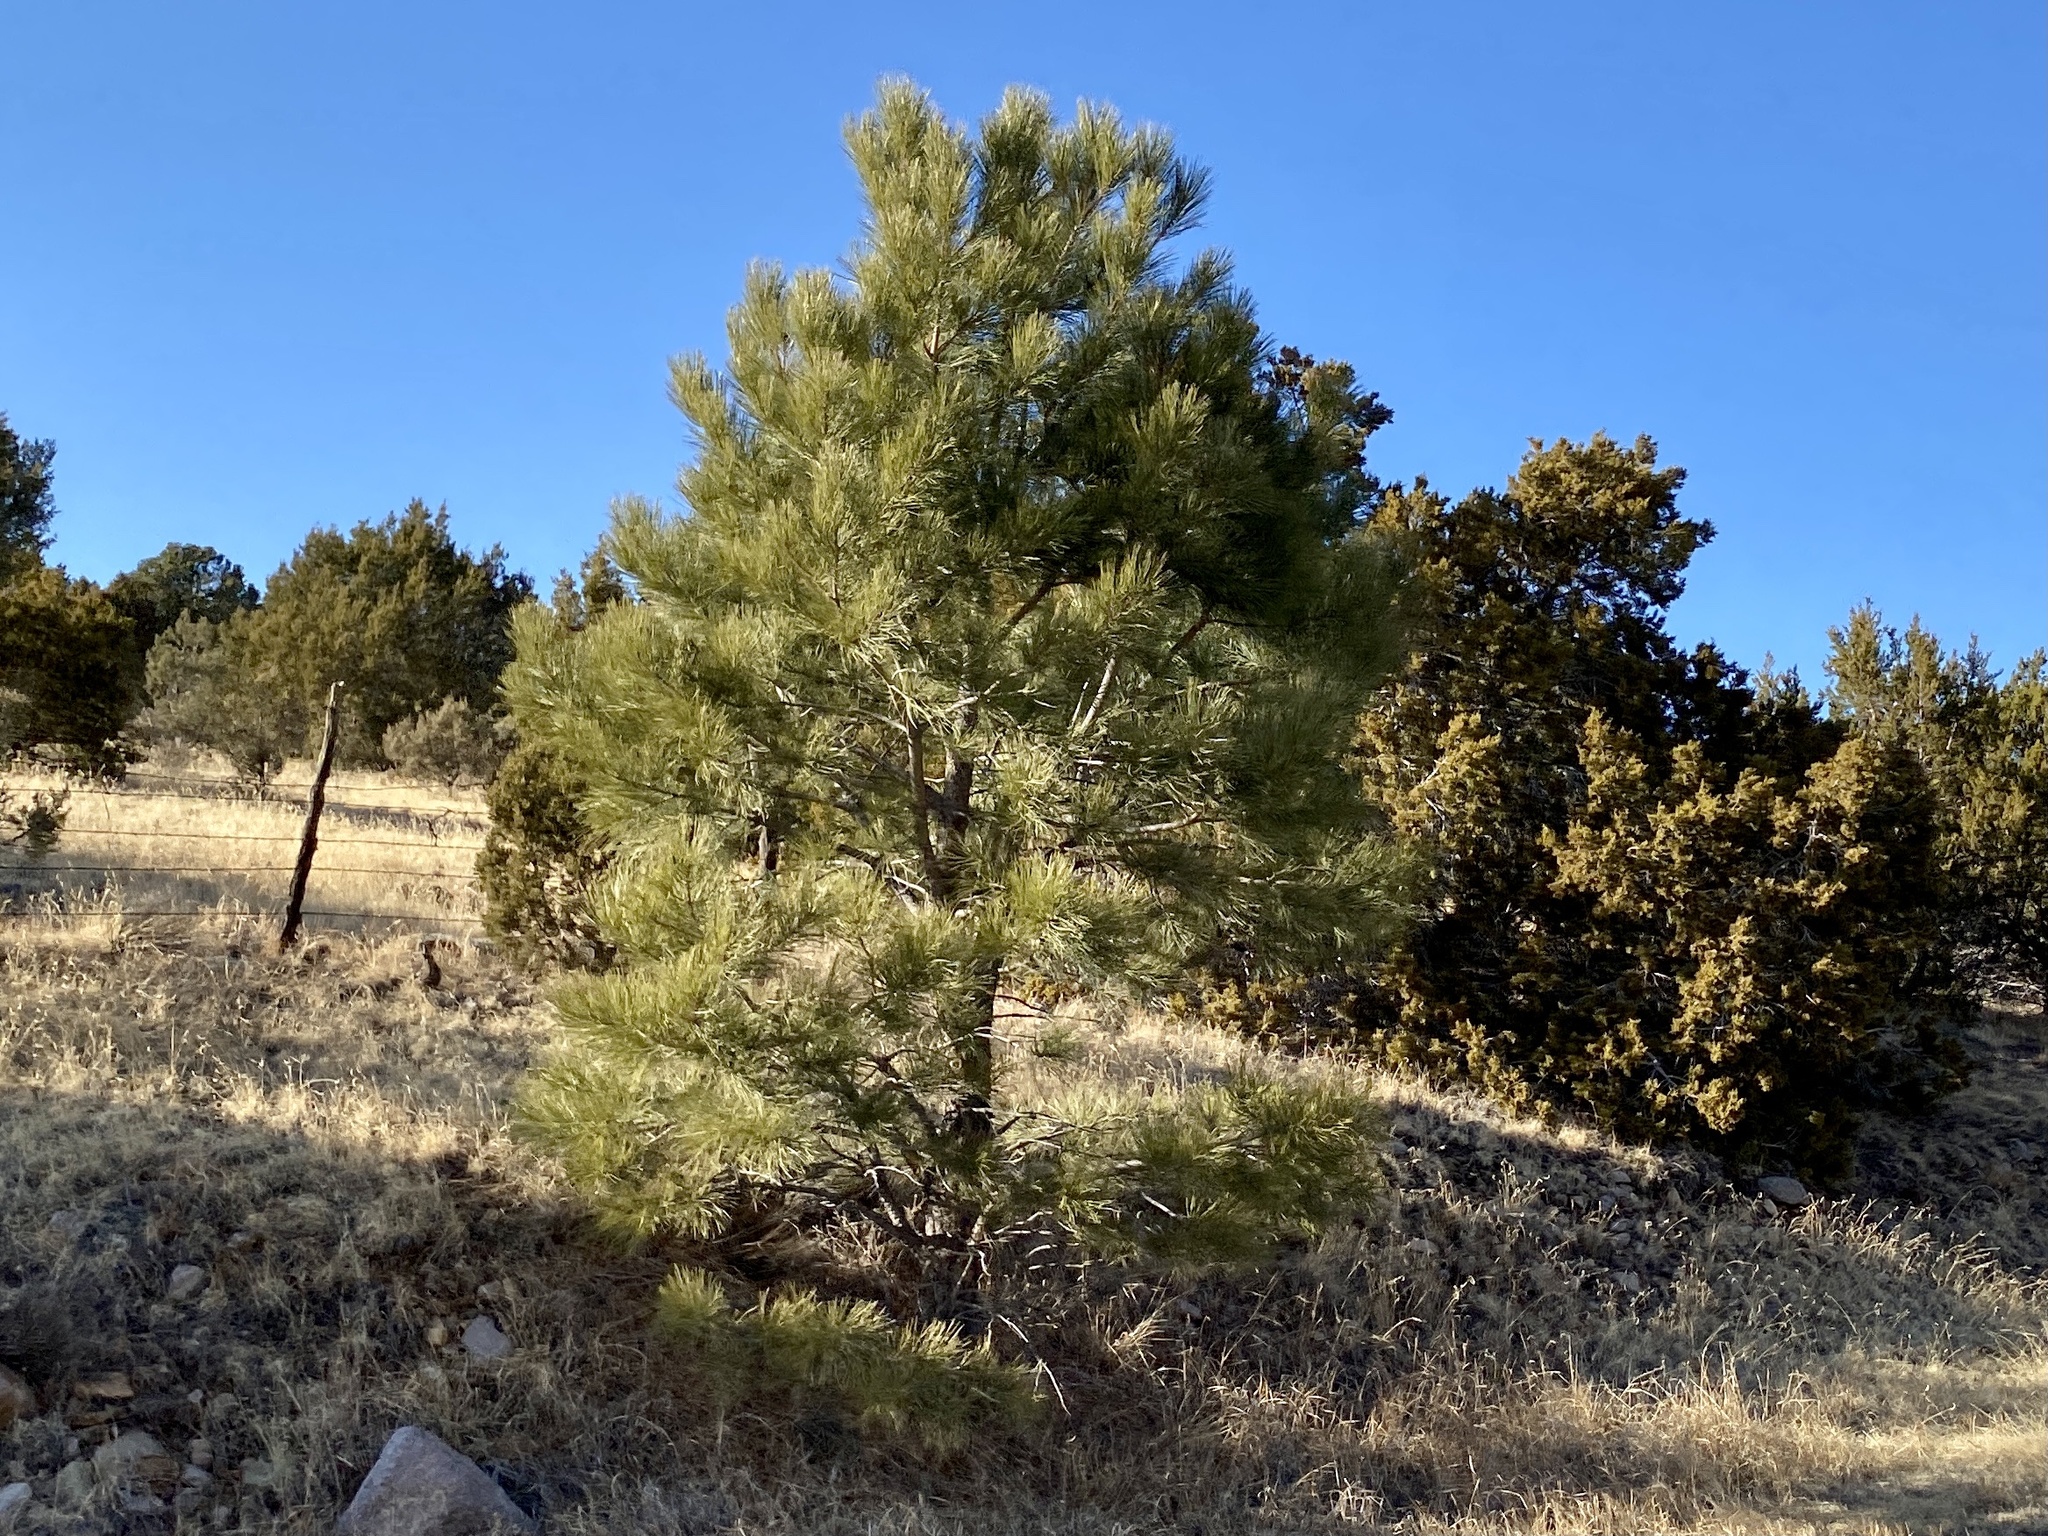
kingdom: Plantae
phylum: Tracheophyta
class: Pinopsida
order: Pinales
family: Pinaceae
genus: Pinus
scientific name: Pinus ponderosa
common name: Western yellow-pine
